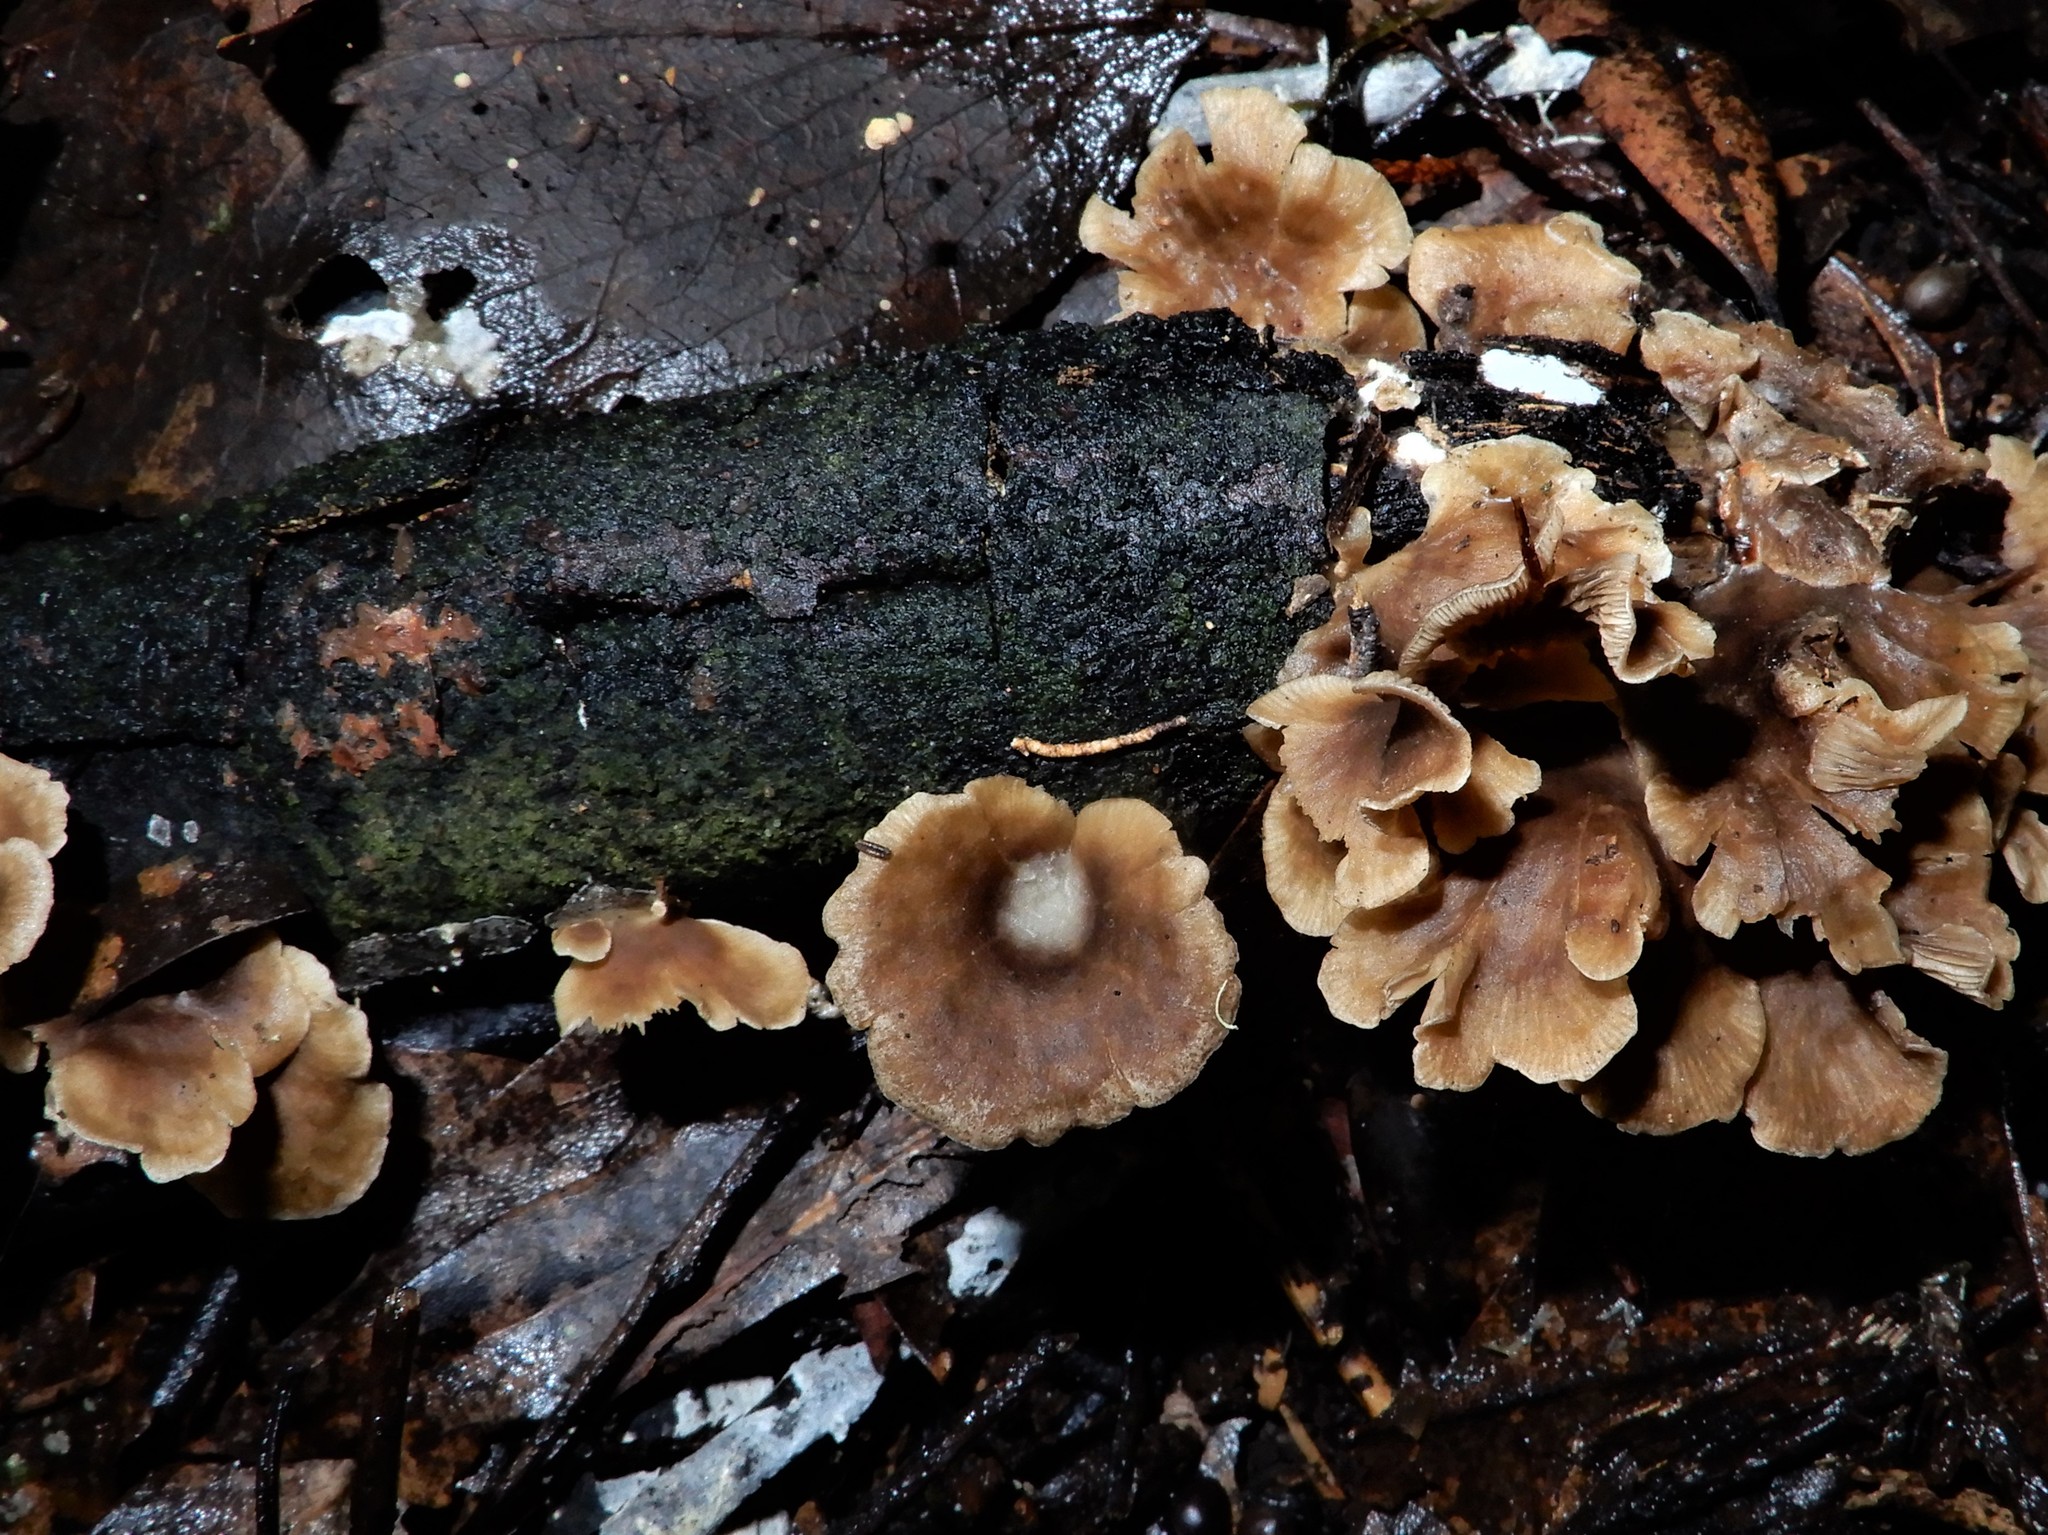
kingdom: Fungi
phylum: Basidiomycota
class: Agaricomycetes
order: Agaricales
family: Tricholomataceae
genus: Rhizocybe
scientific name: Rhizocybe
